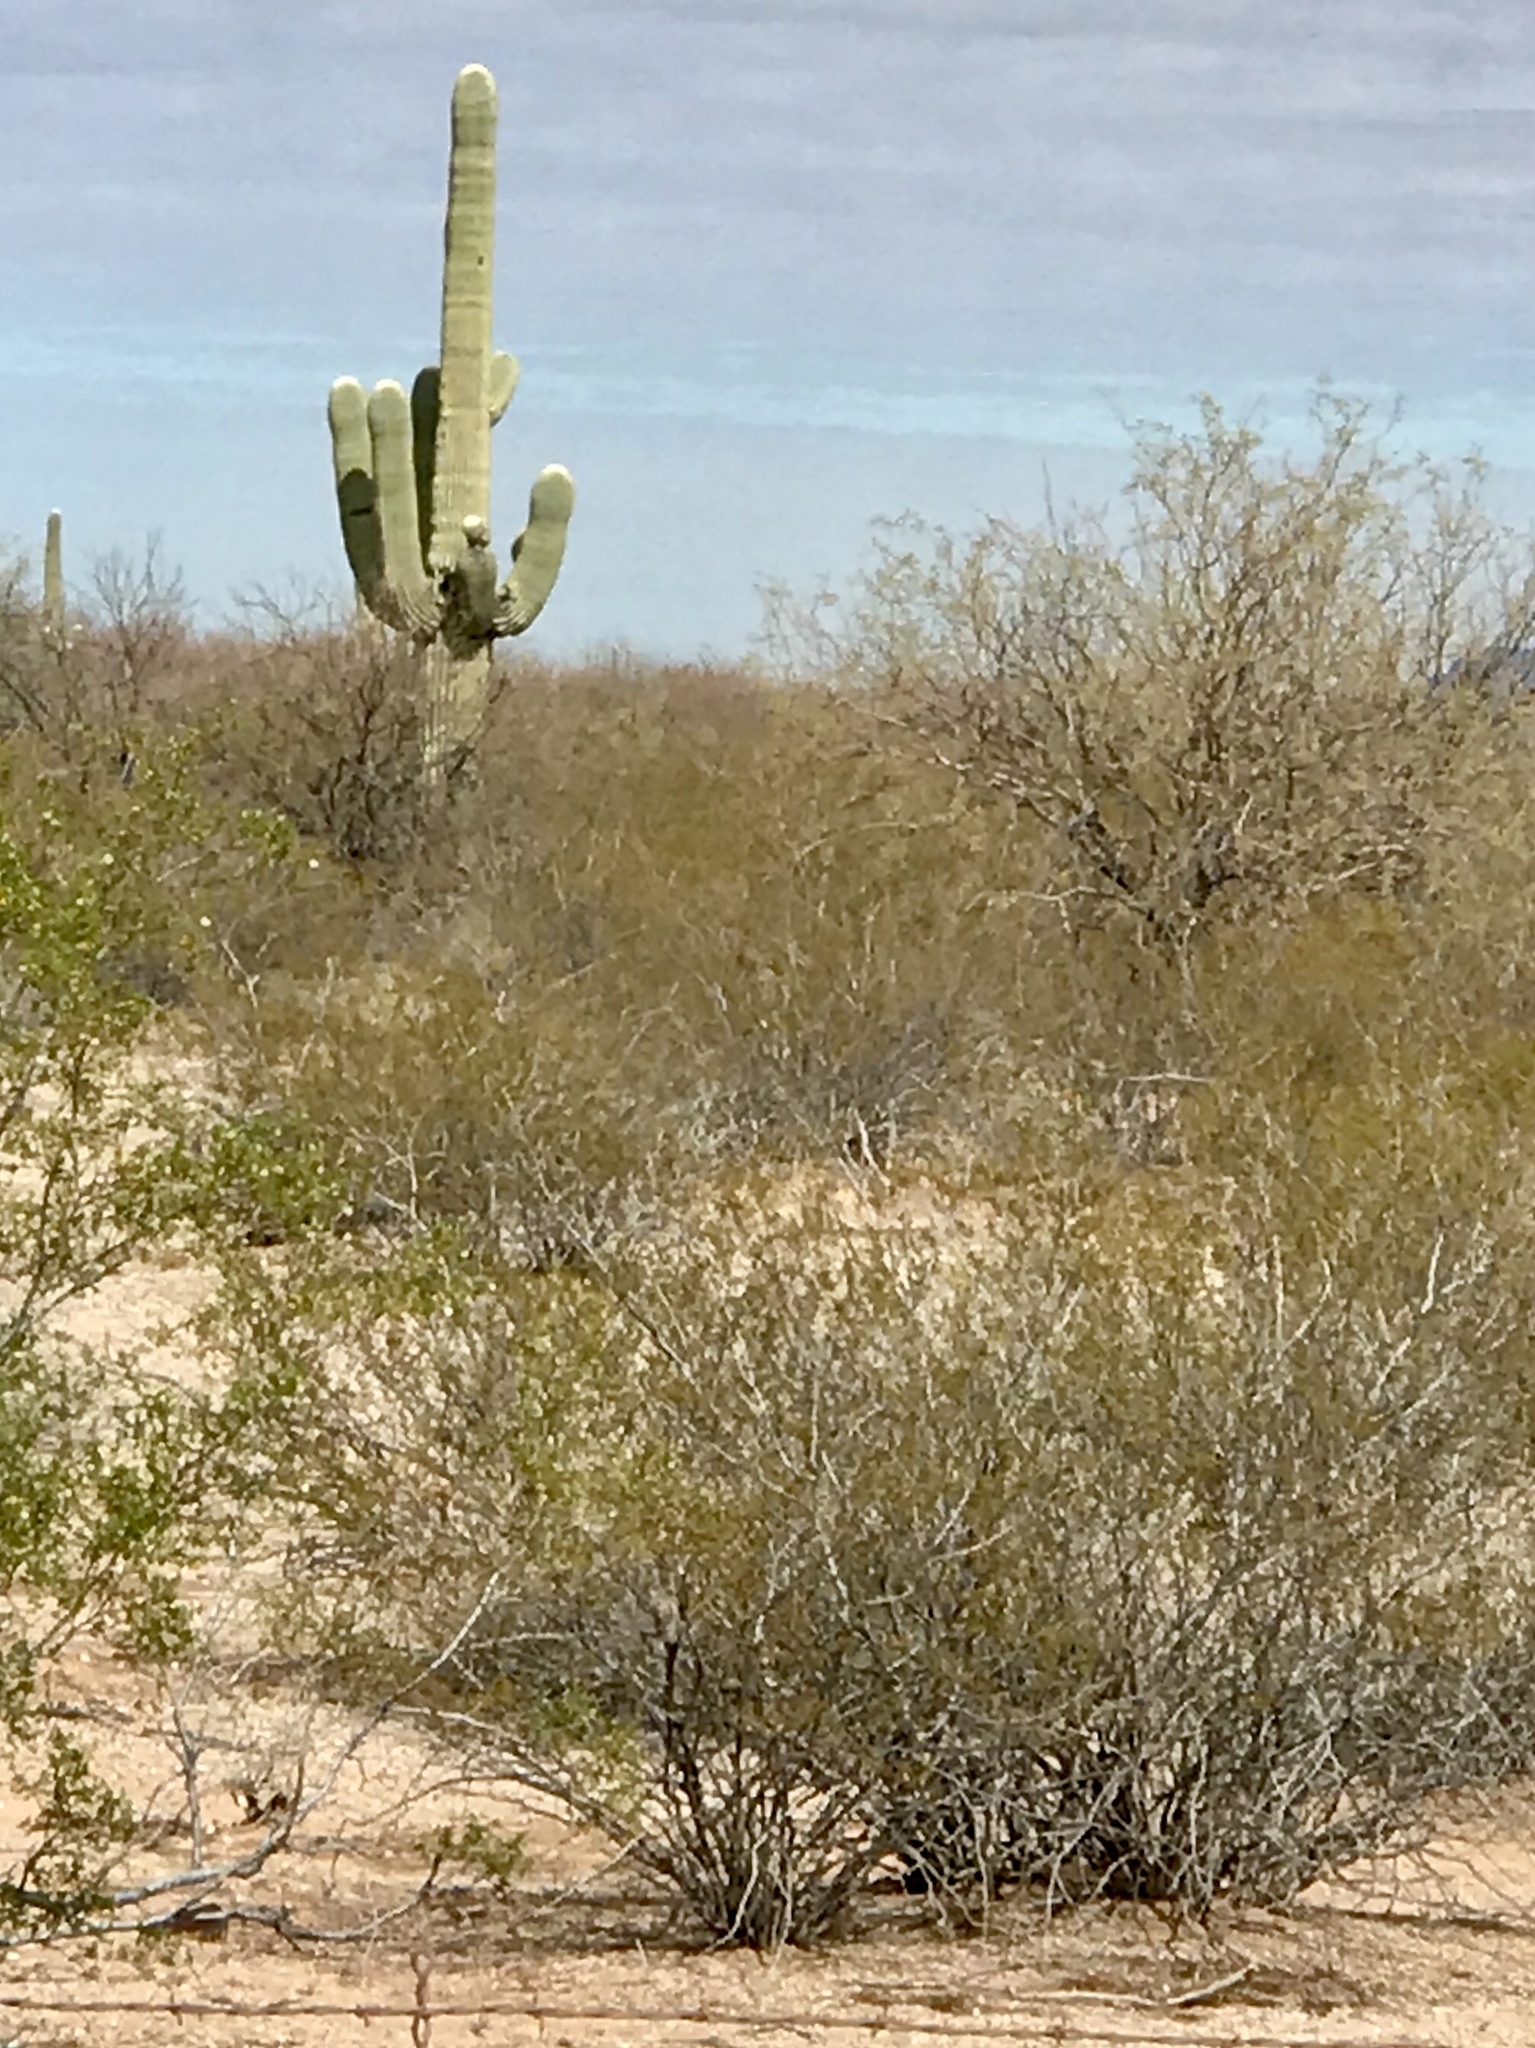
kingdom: Plantae
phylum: Tracheophyta
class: Magnoliopsida
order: Zygophyllales
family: Zygophyllaceae
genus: Larrea
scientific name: Larrea tridentata
